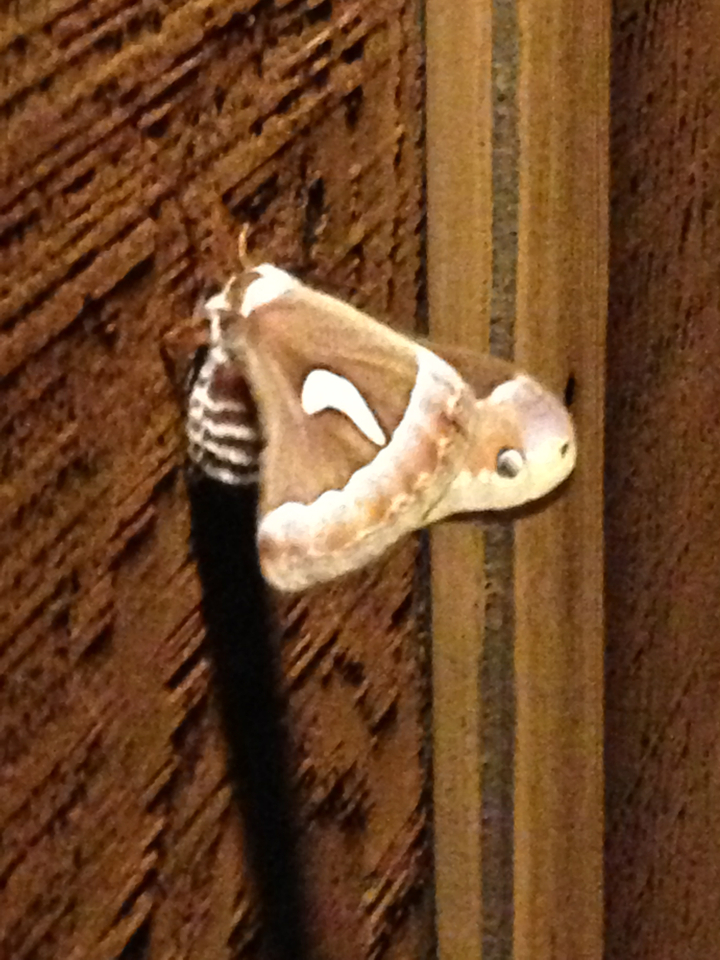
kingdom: Animalia
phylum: Arthropoda
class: Insecta
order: Lepidoptera
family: Saturniidae
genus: Hyalophora
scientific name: Hyalophora euryalus
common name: Ceanothus silkmoth
